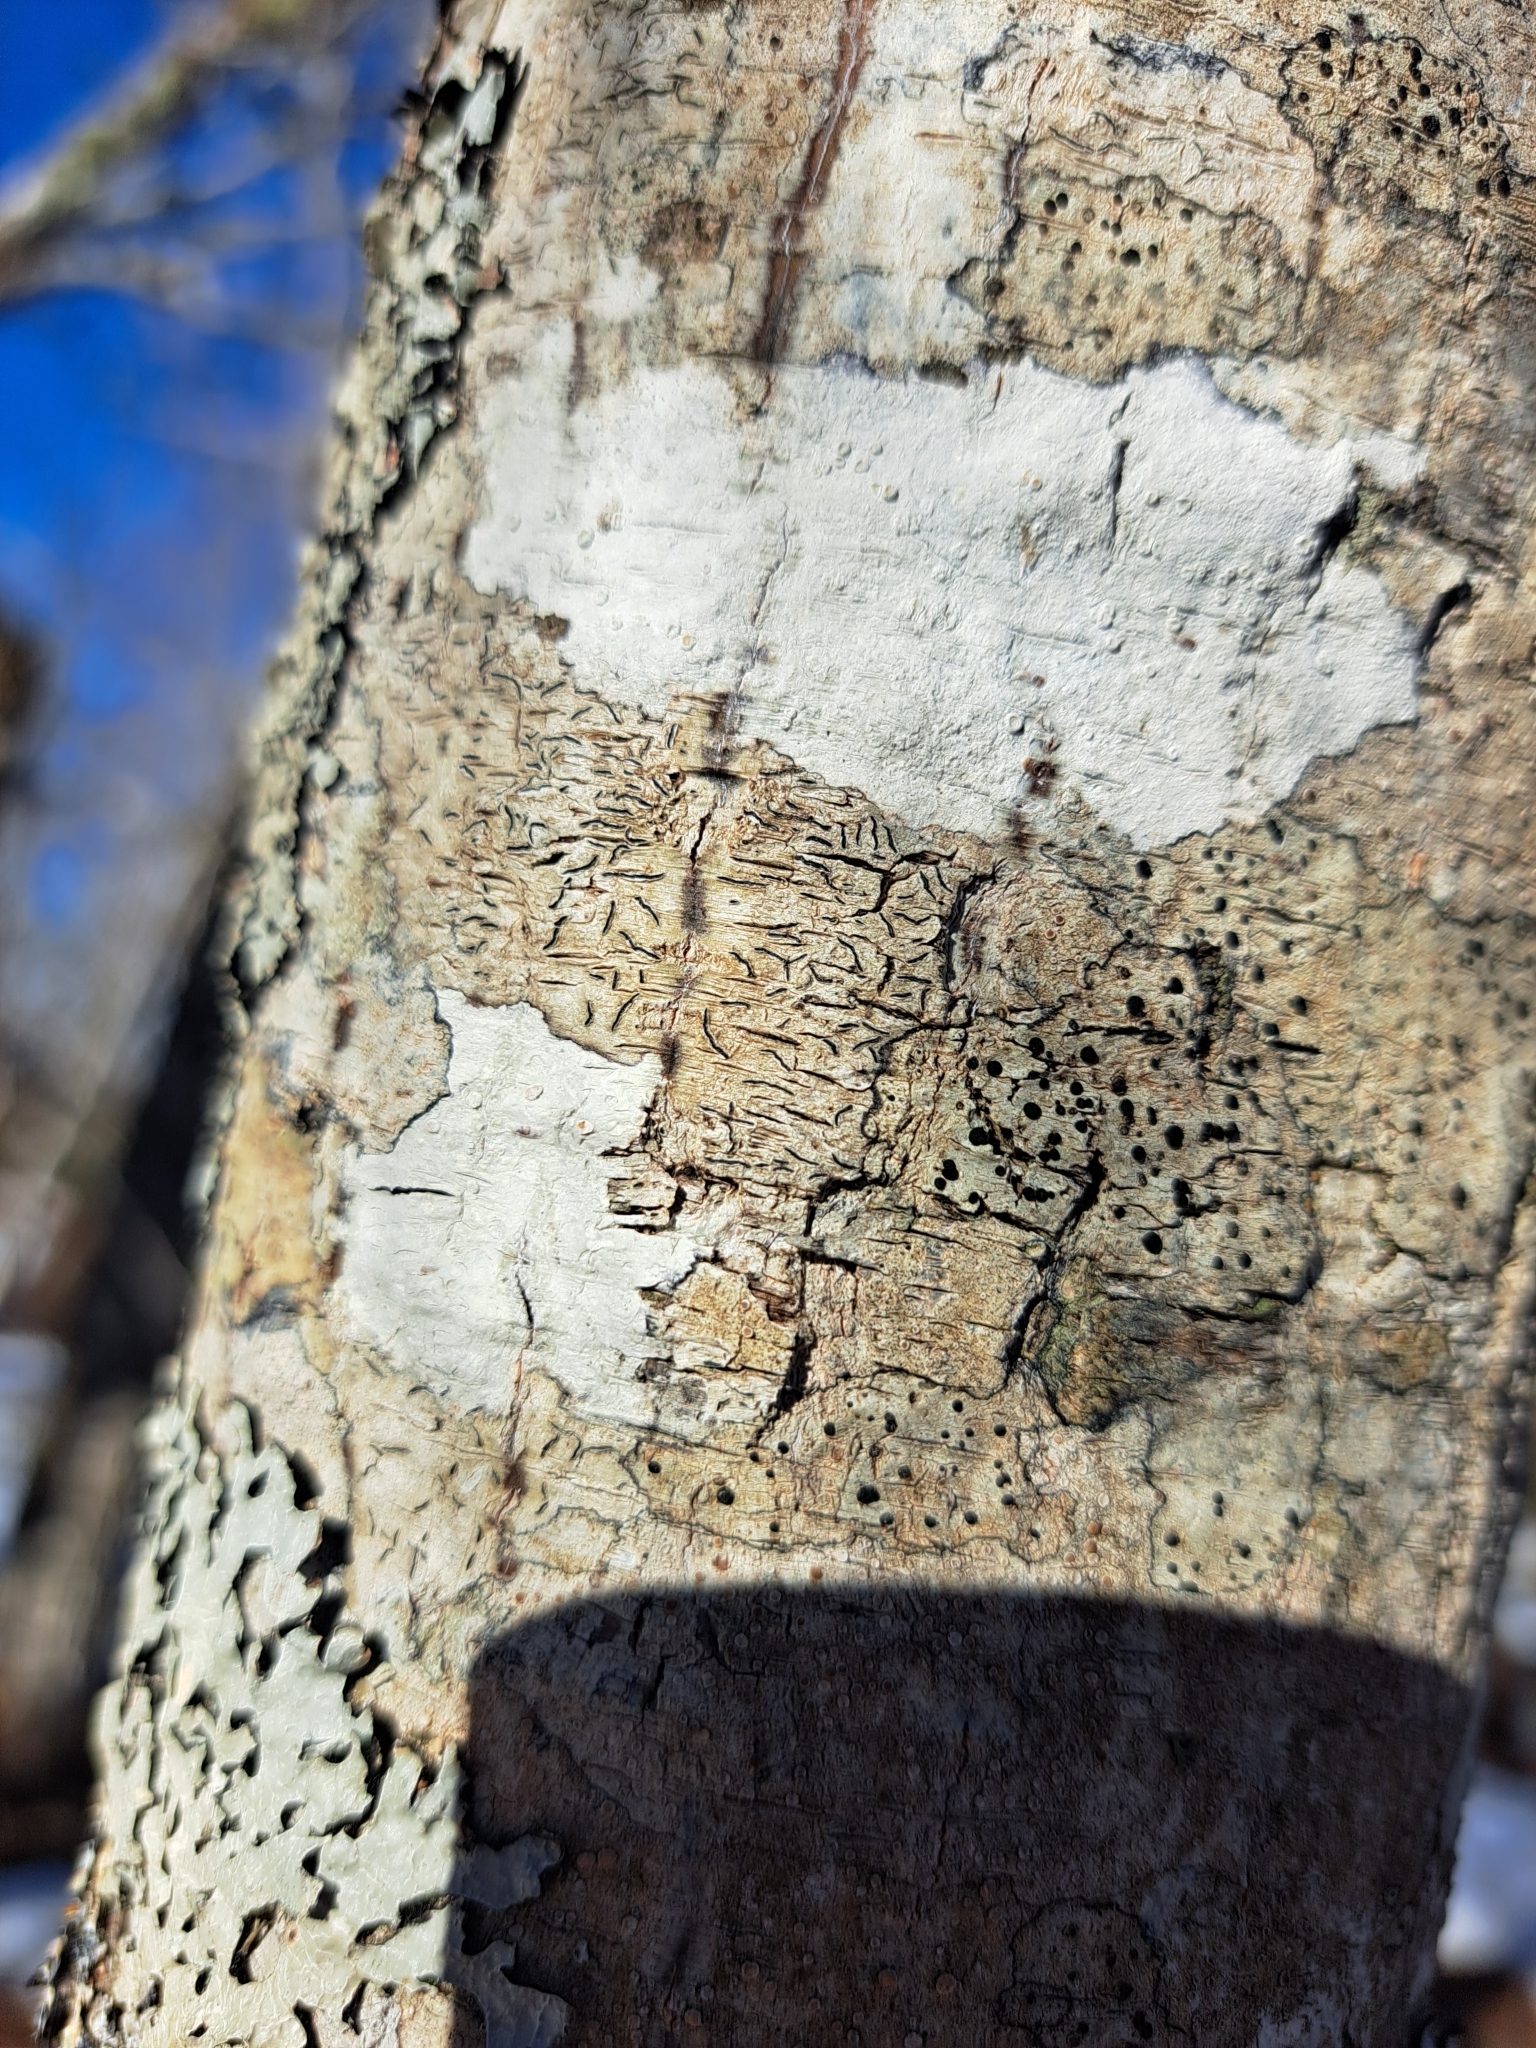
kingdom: Fungi
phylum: Ascomycota
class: Lecanoromycetes
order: Caliciales
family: Caliciaceae
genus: Buellia
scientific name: Buellia erubescens
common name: Common button lichen
